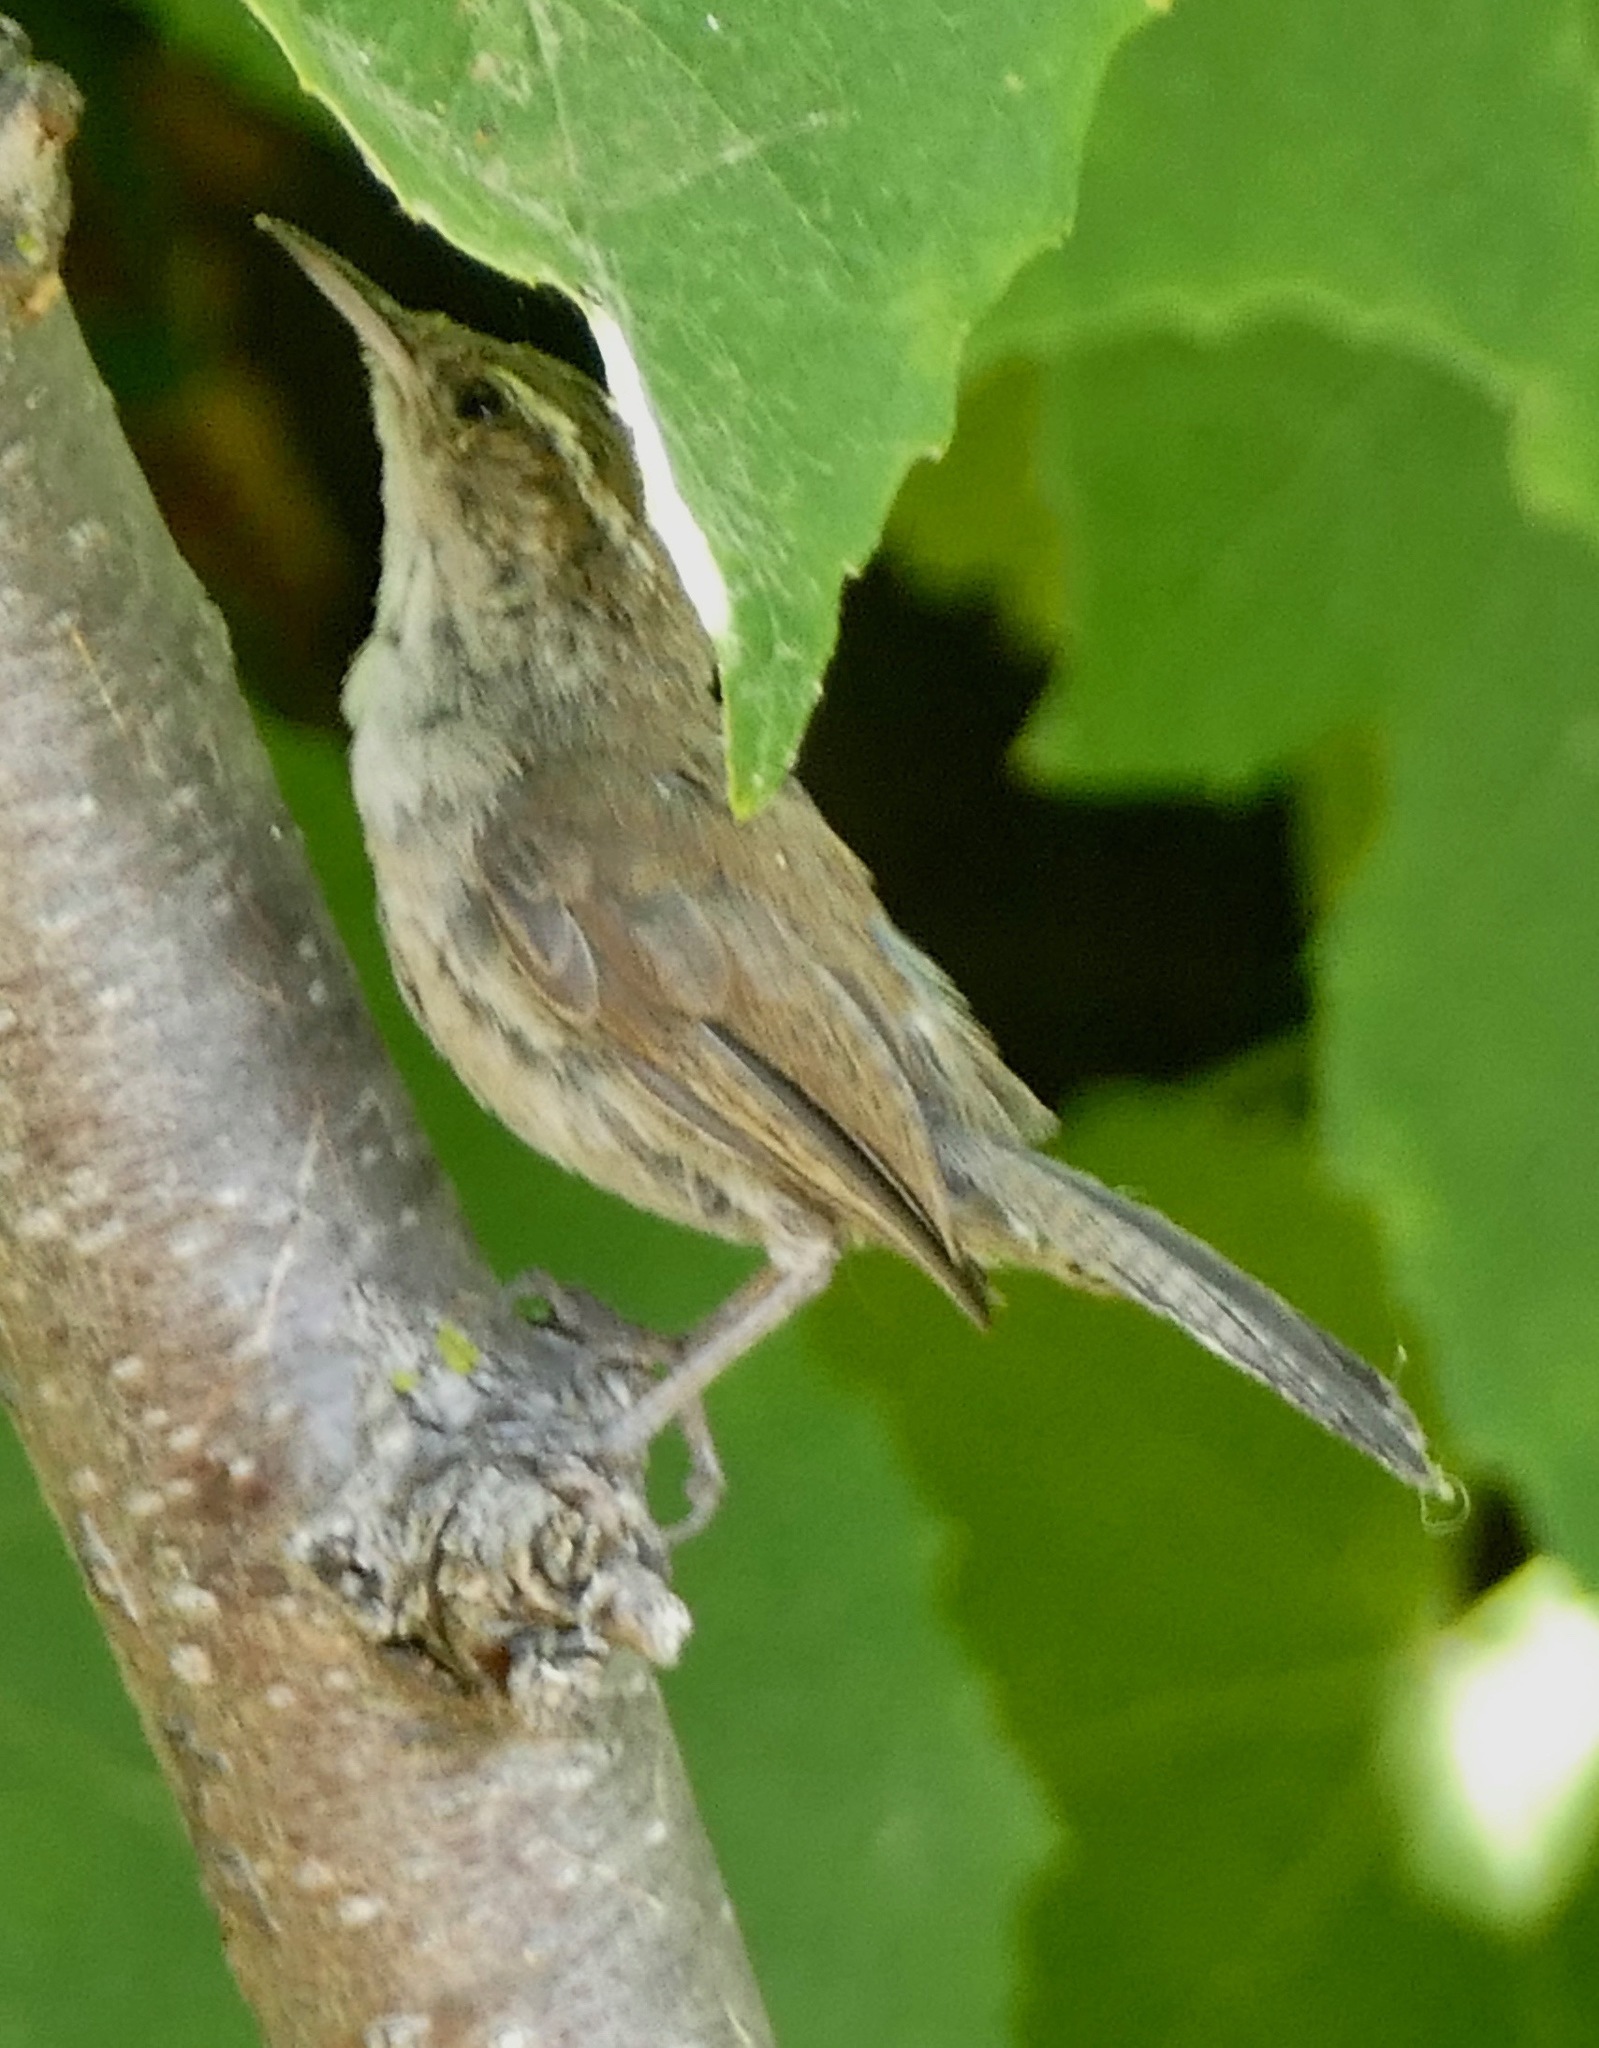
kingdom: Animalia
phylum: Chordata
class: Aves
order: Passeriformes
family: Troglodytidae
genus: Thryomanes
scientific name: Thryomanes bewickii
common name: Bewick's wren
